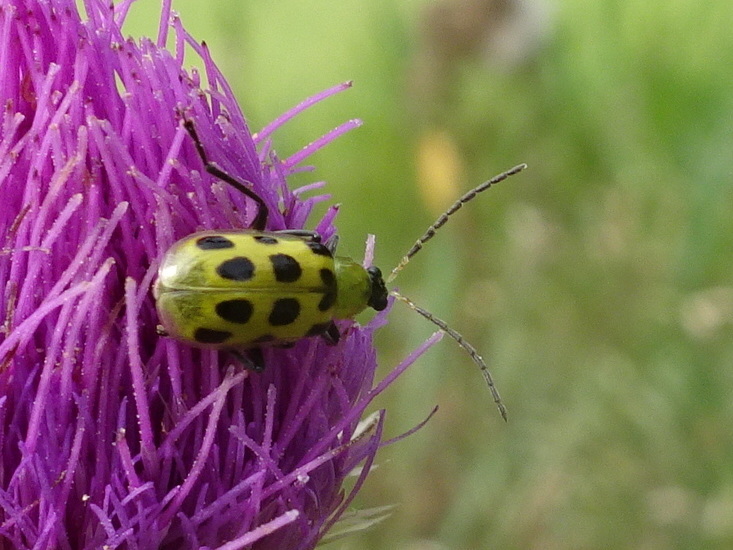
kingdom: Animalia
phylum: Arthropoda
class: Insecta
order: Coleoptera
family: Chrysomelidae
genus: Diabrotica
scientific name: Diabrotica undecimpunctata
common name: Spotted cucumber beetle
